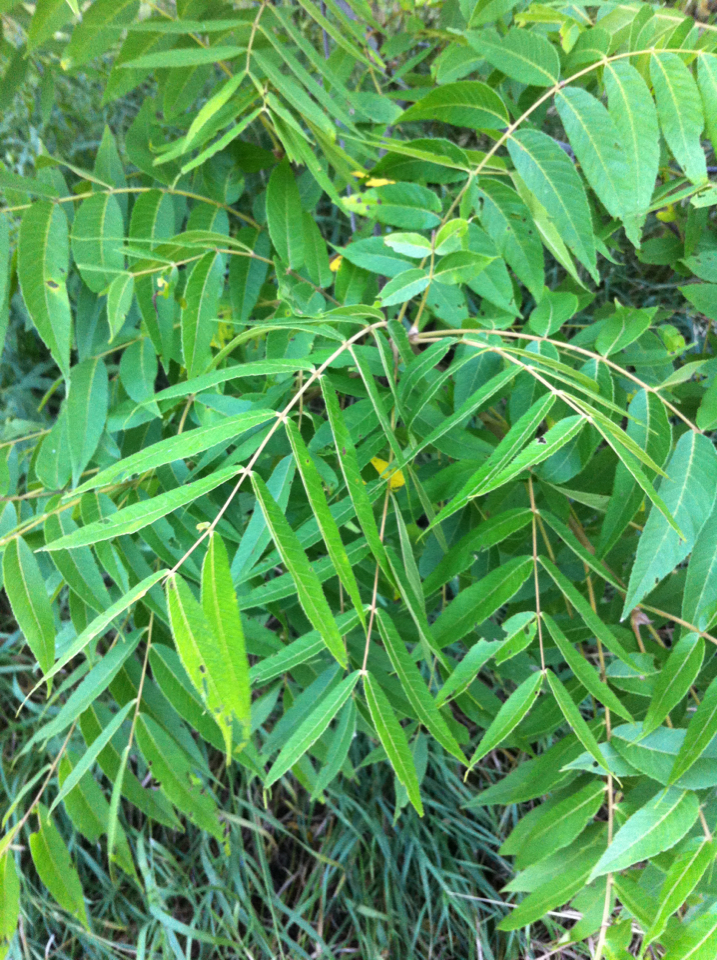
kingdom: Plantae
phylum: Tracheophyta
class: Magnoliopsida
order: Fagales
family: Juglandaceae
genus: Juglans
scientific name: Juglans nigra
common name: Black walnut
